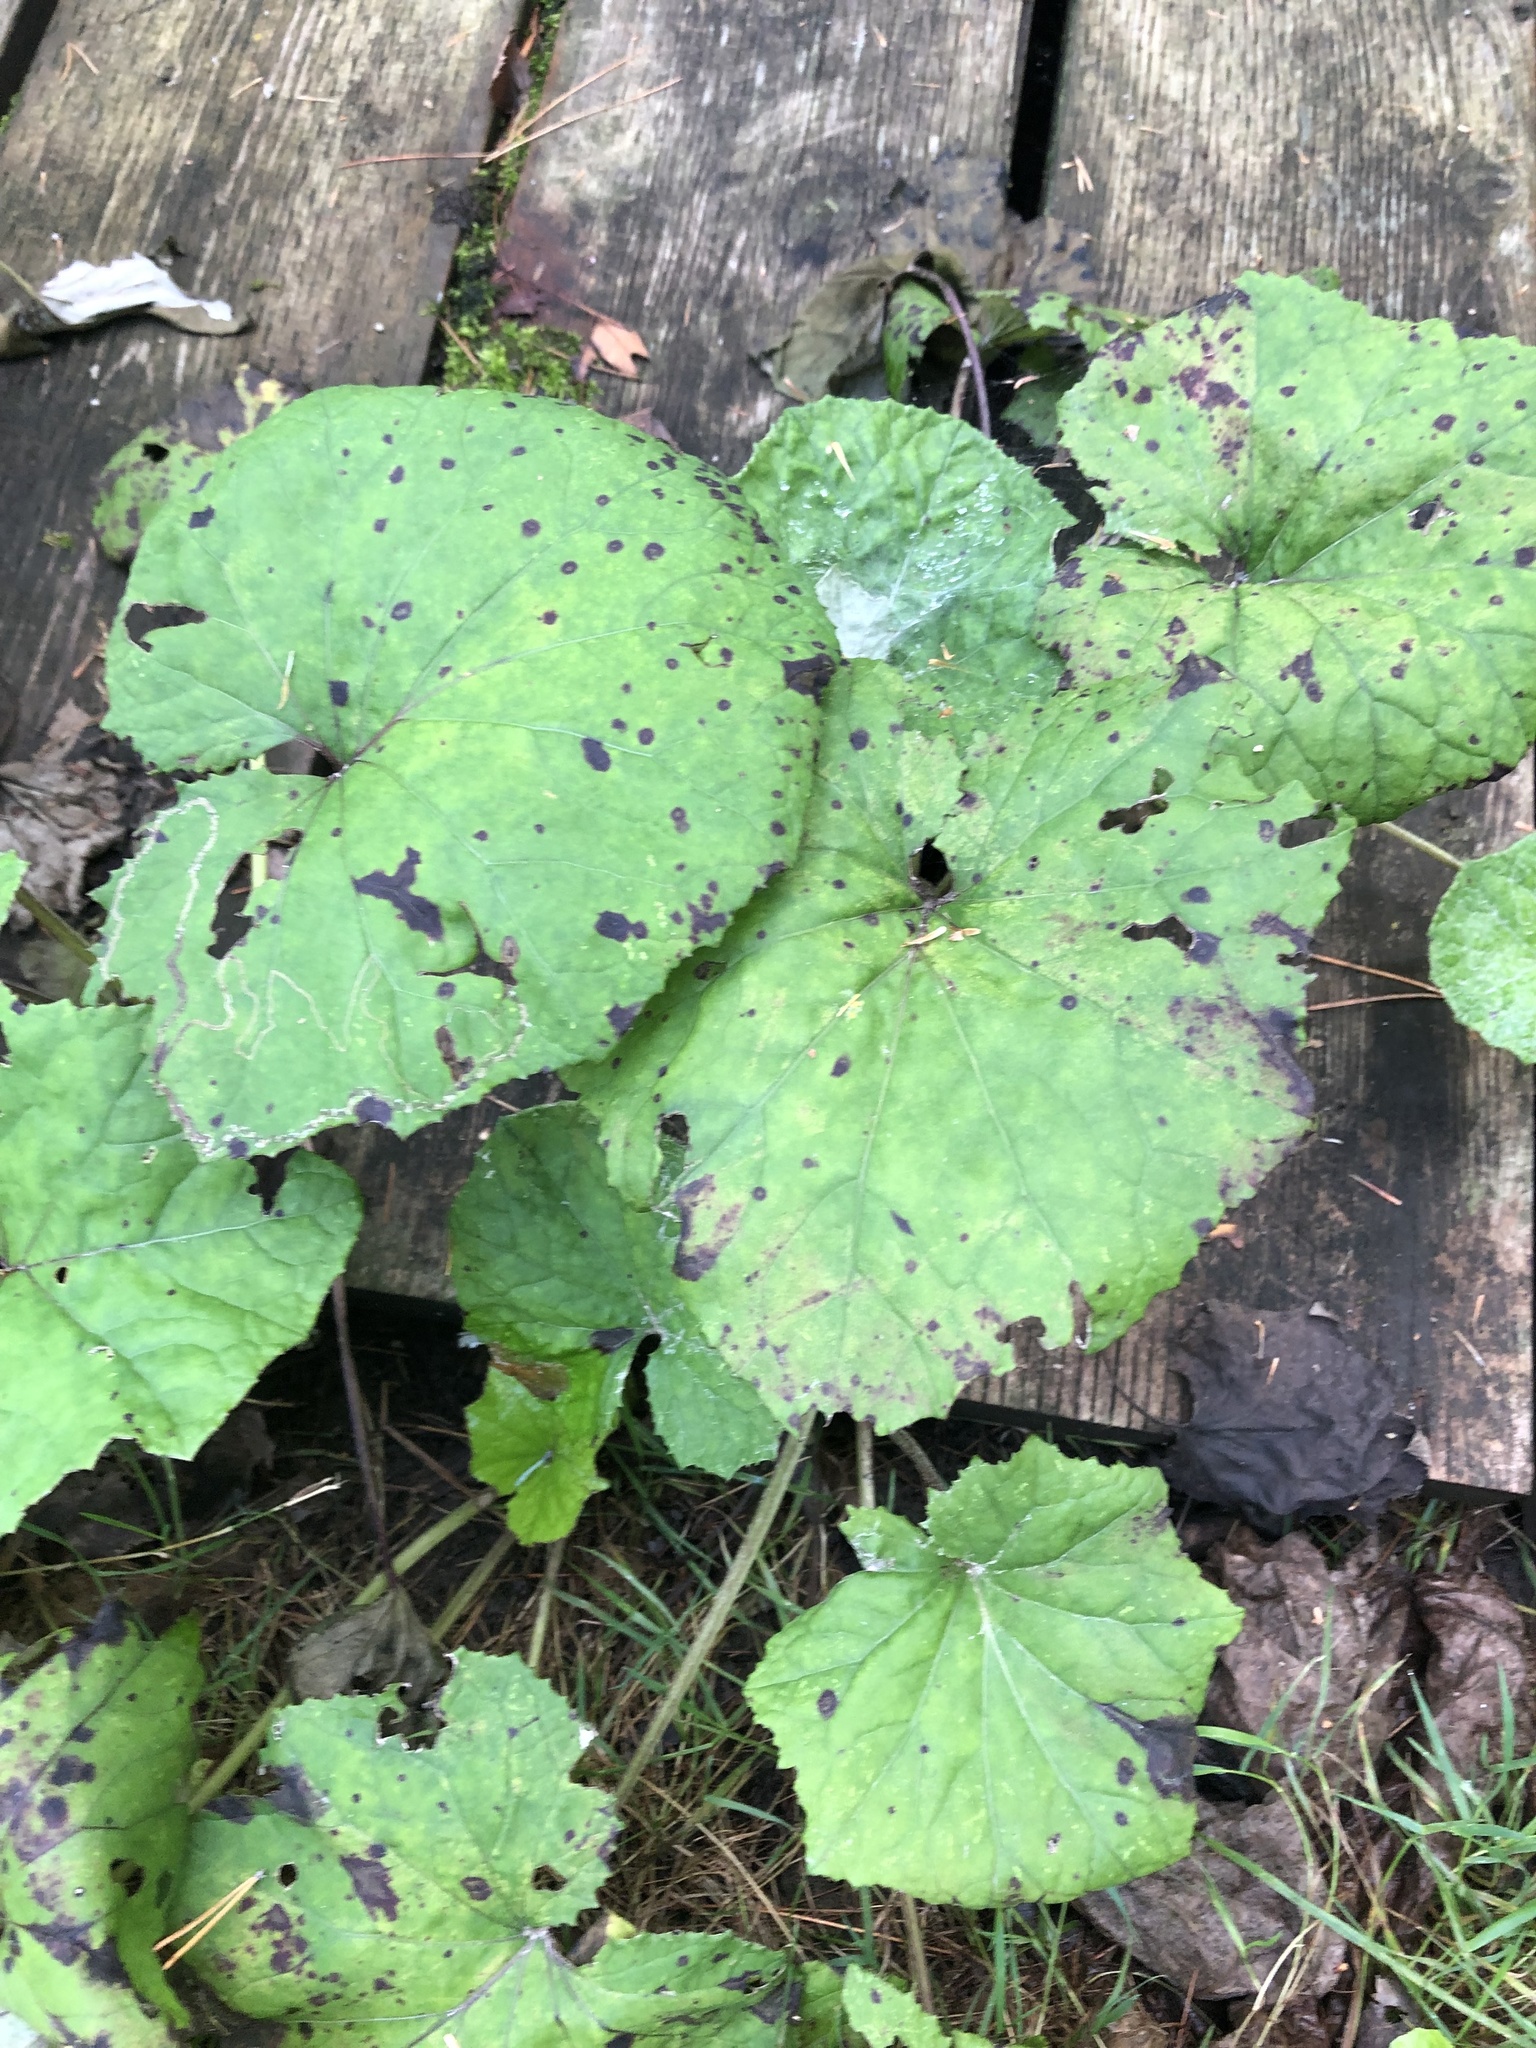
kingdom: Plantae
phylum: Tracheophyta
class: Magnoliopsida
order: Asterales
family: Asteraceae
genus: Tussilago
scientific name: Tussilago farfara
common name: Coltsfoot
